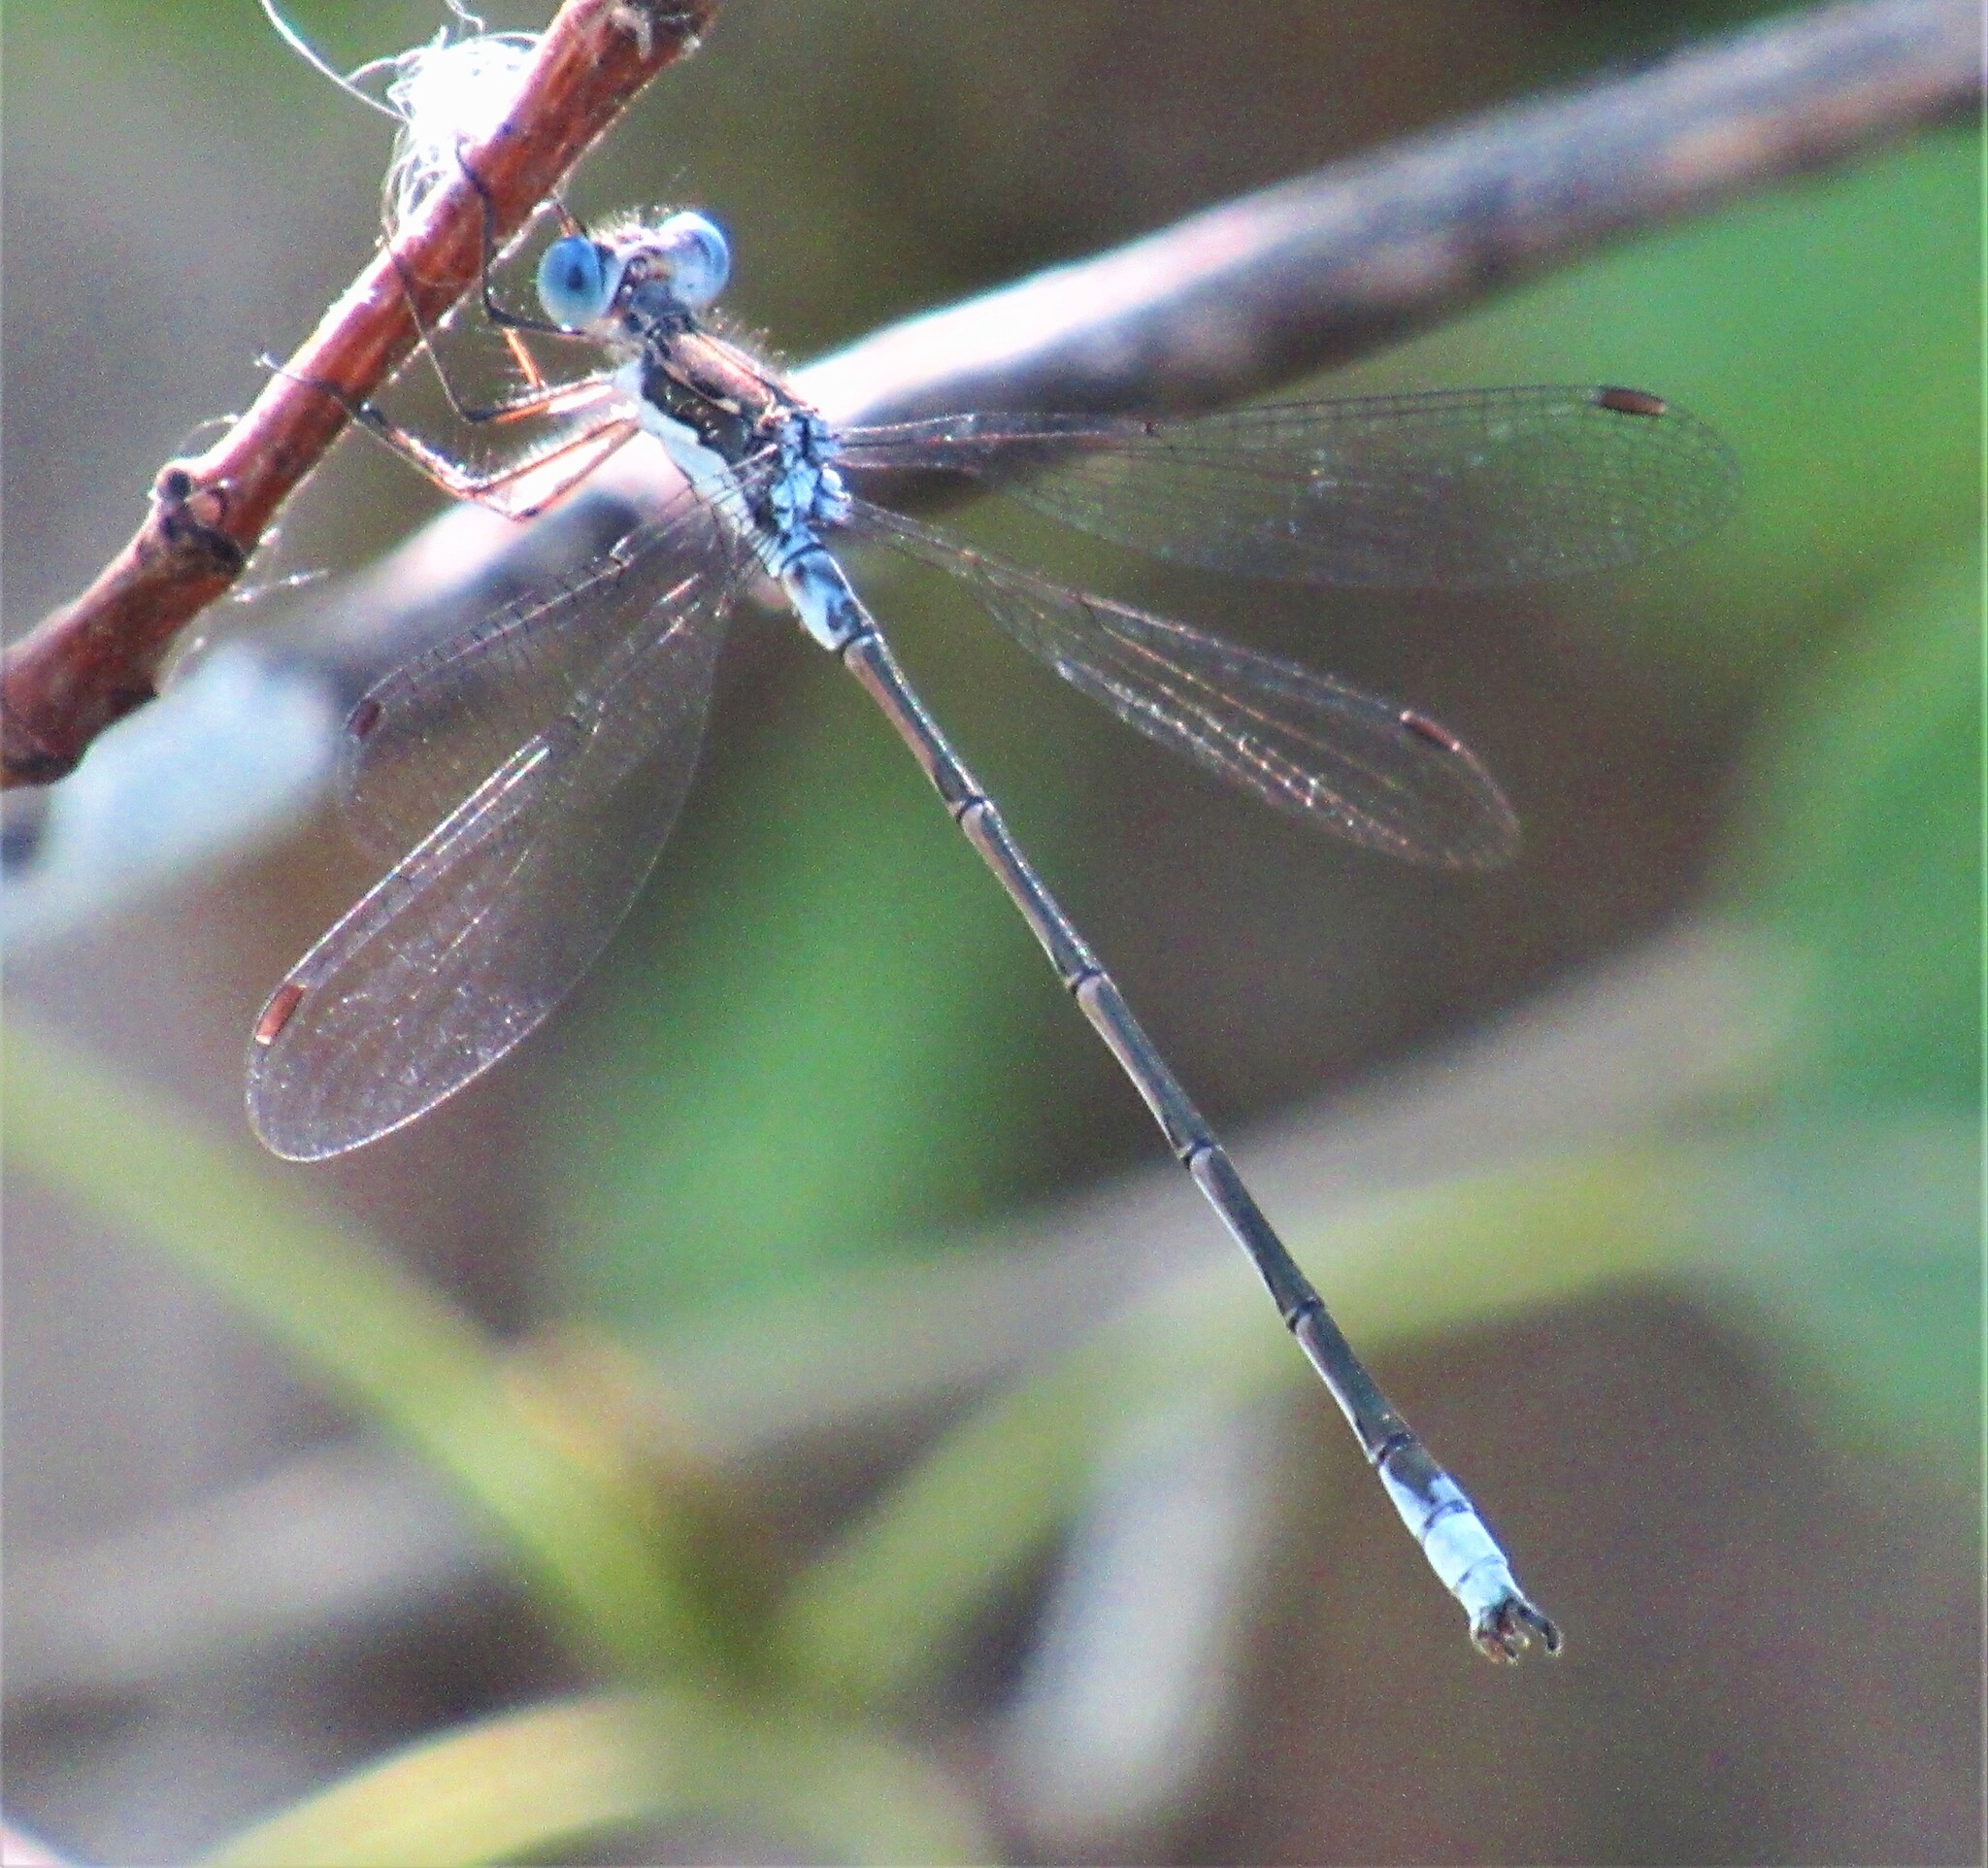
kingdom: Animalia
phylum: Arthropoda
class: Insecta
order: Odonata
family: Lestidae
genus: Lestes
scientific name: Lestes congener
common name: Spotted spreadwing
